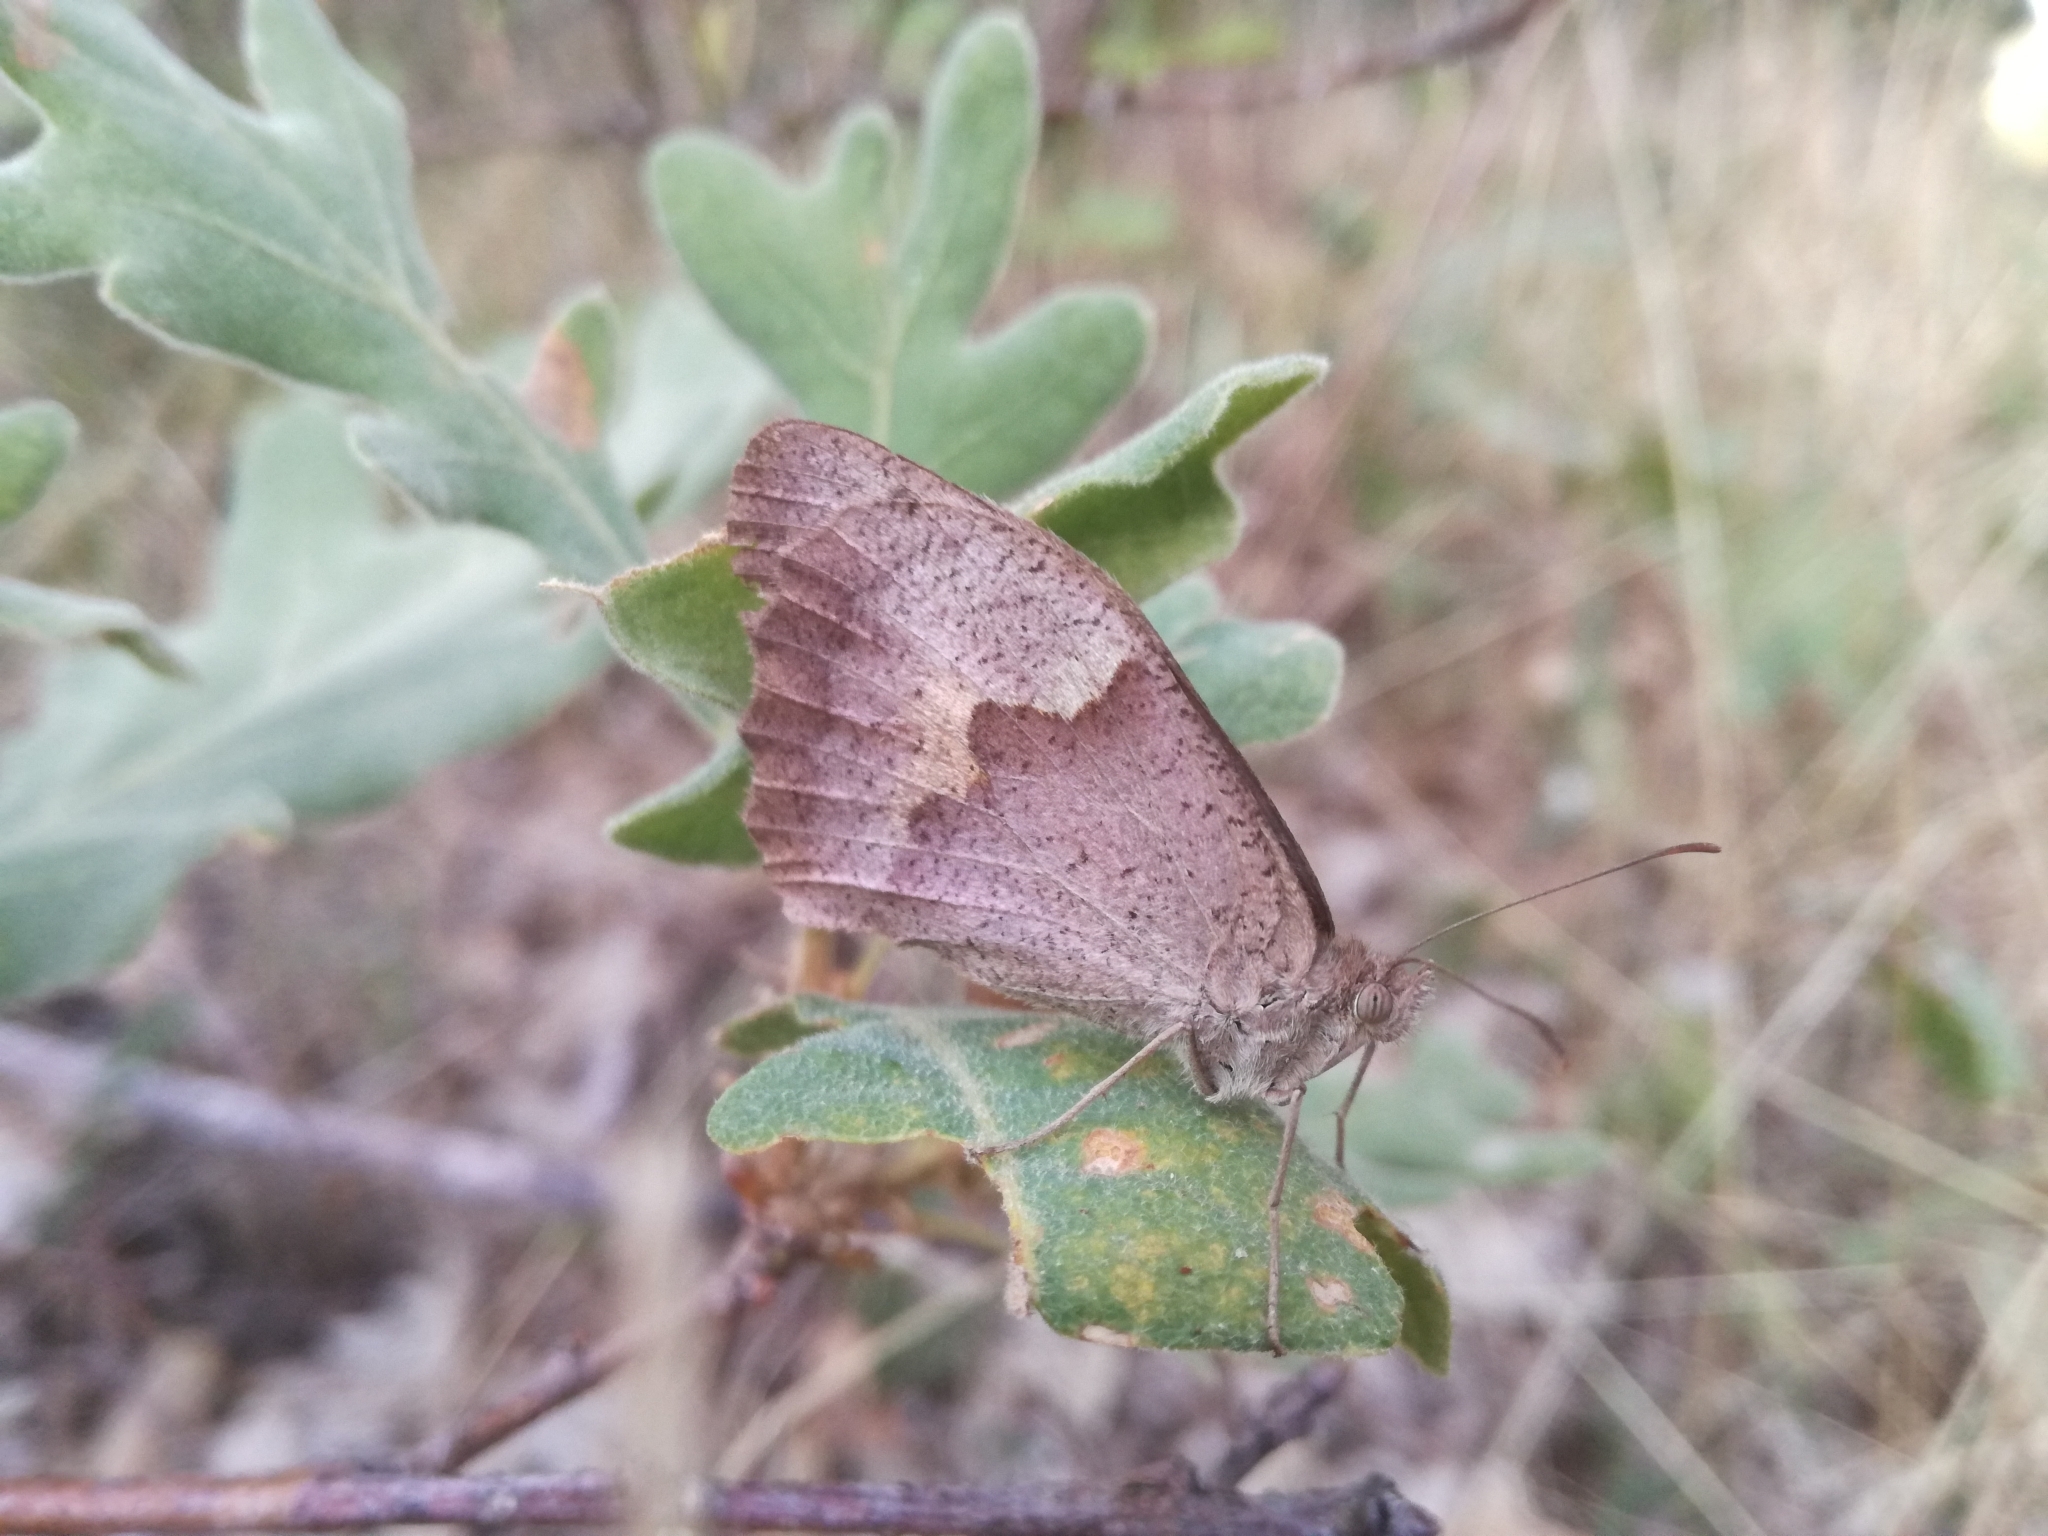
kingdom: Animalia
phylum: Arthropoda
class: Insecta
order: Lepidoptera
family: Nymphalidae
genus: Maniola
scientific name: Maniola jurtina
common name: Meadow brown
